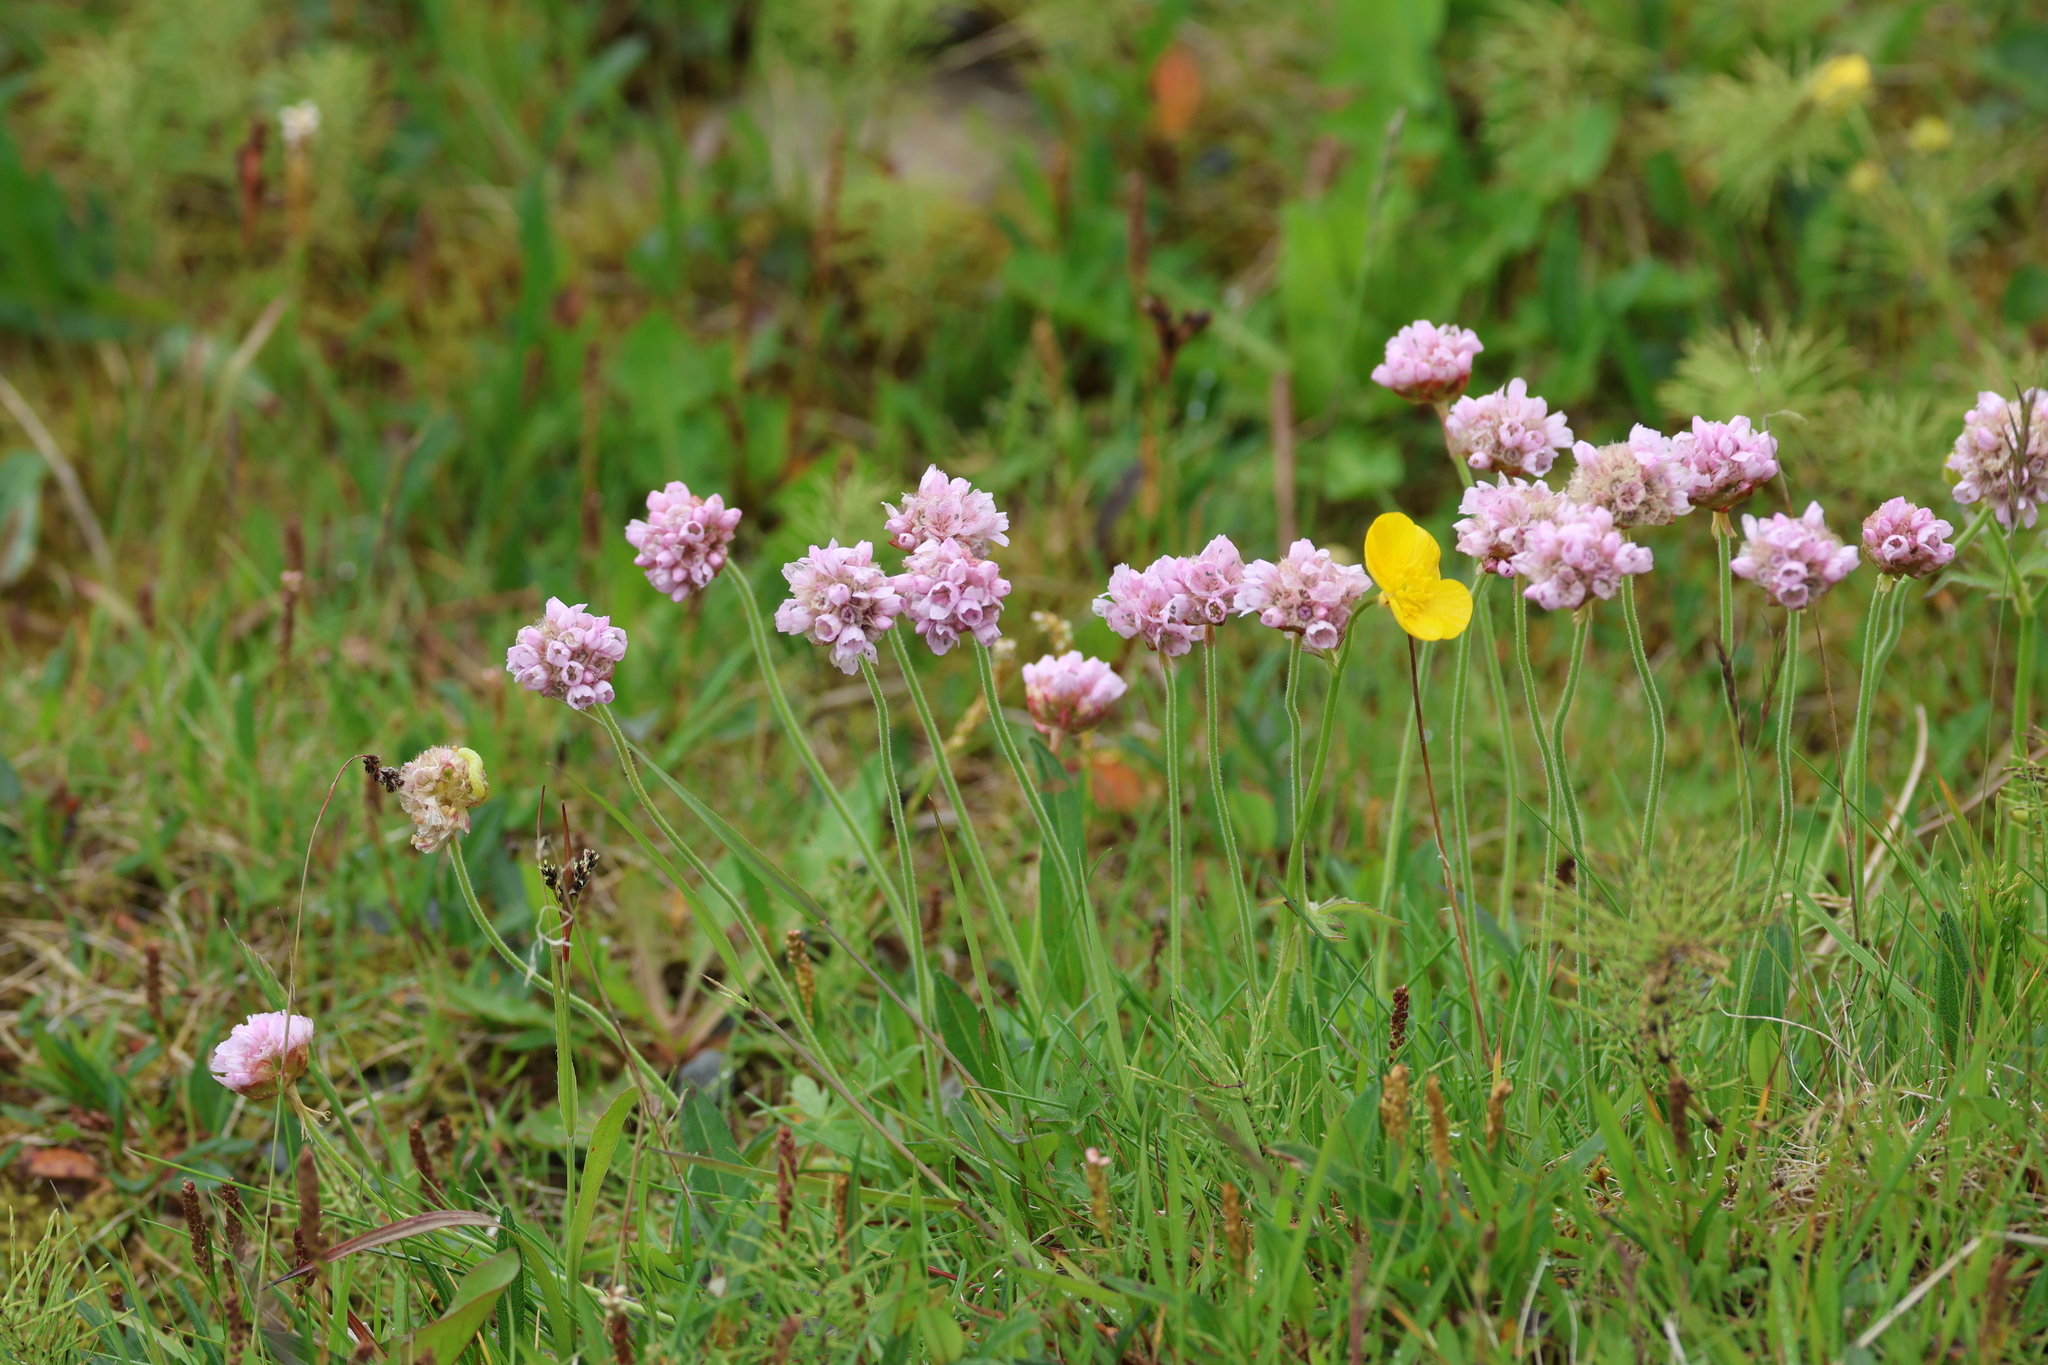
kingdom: Plantae
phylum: Tracheophyta
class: Magnoliopsida
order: Caryophyllales
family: Plumbaginaceae
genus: Armeria
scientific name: Armeria maritima
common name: Thrift
